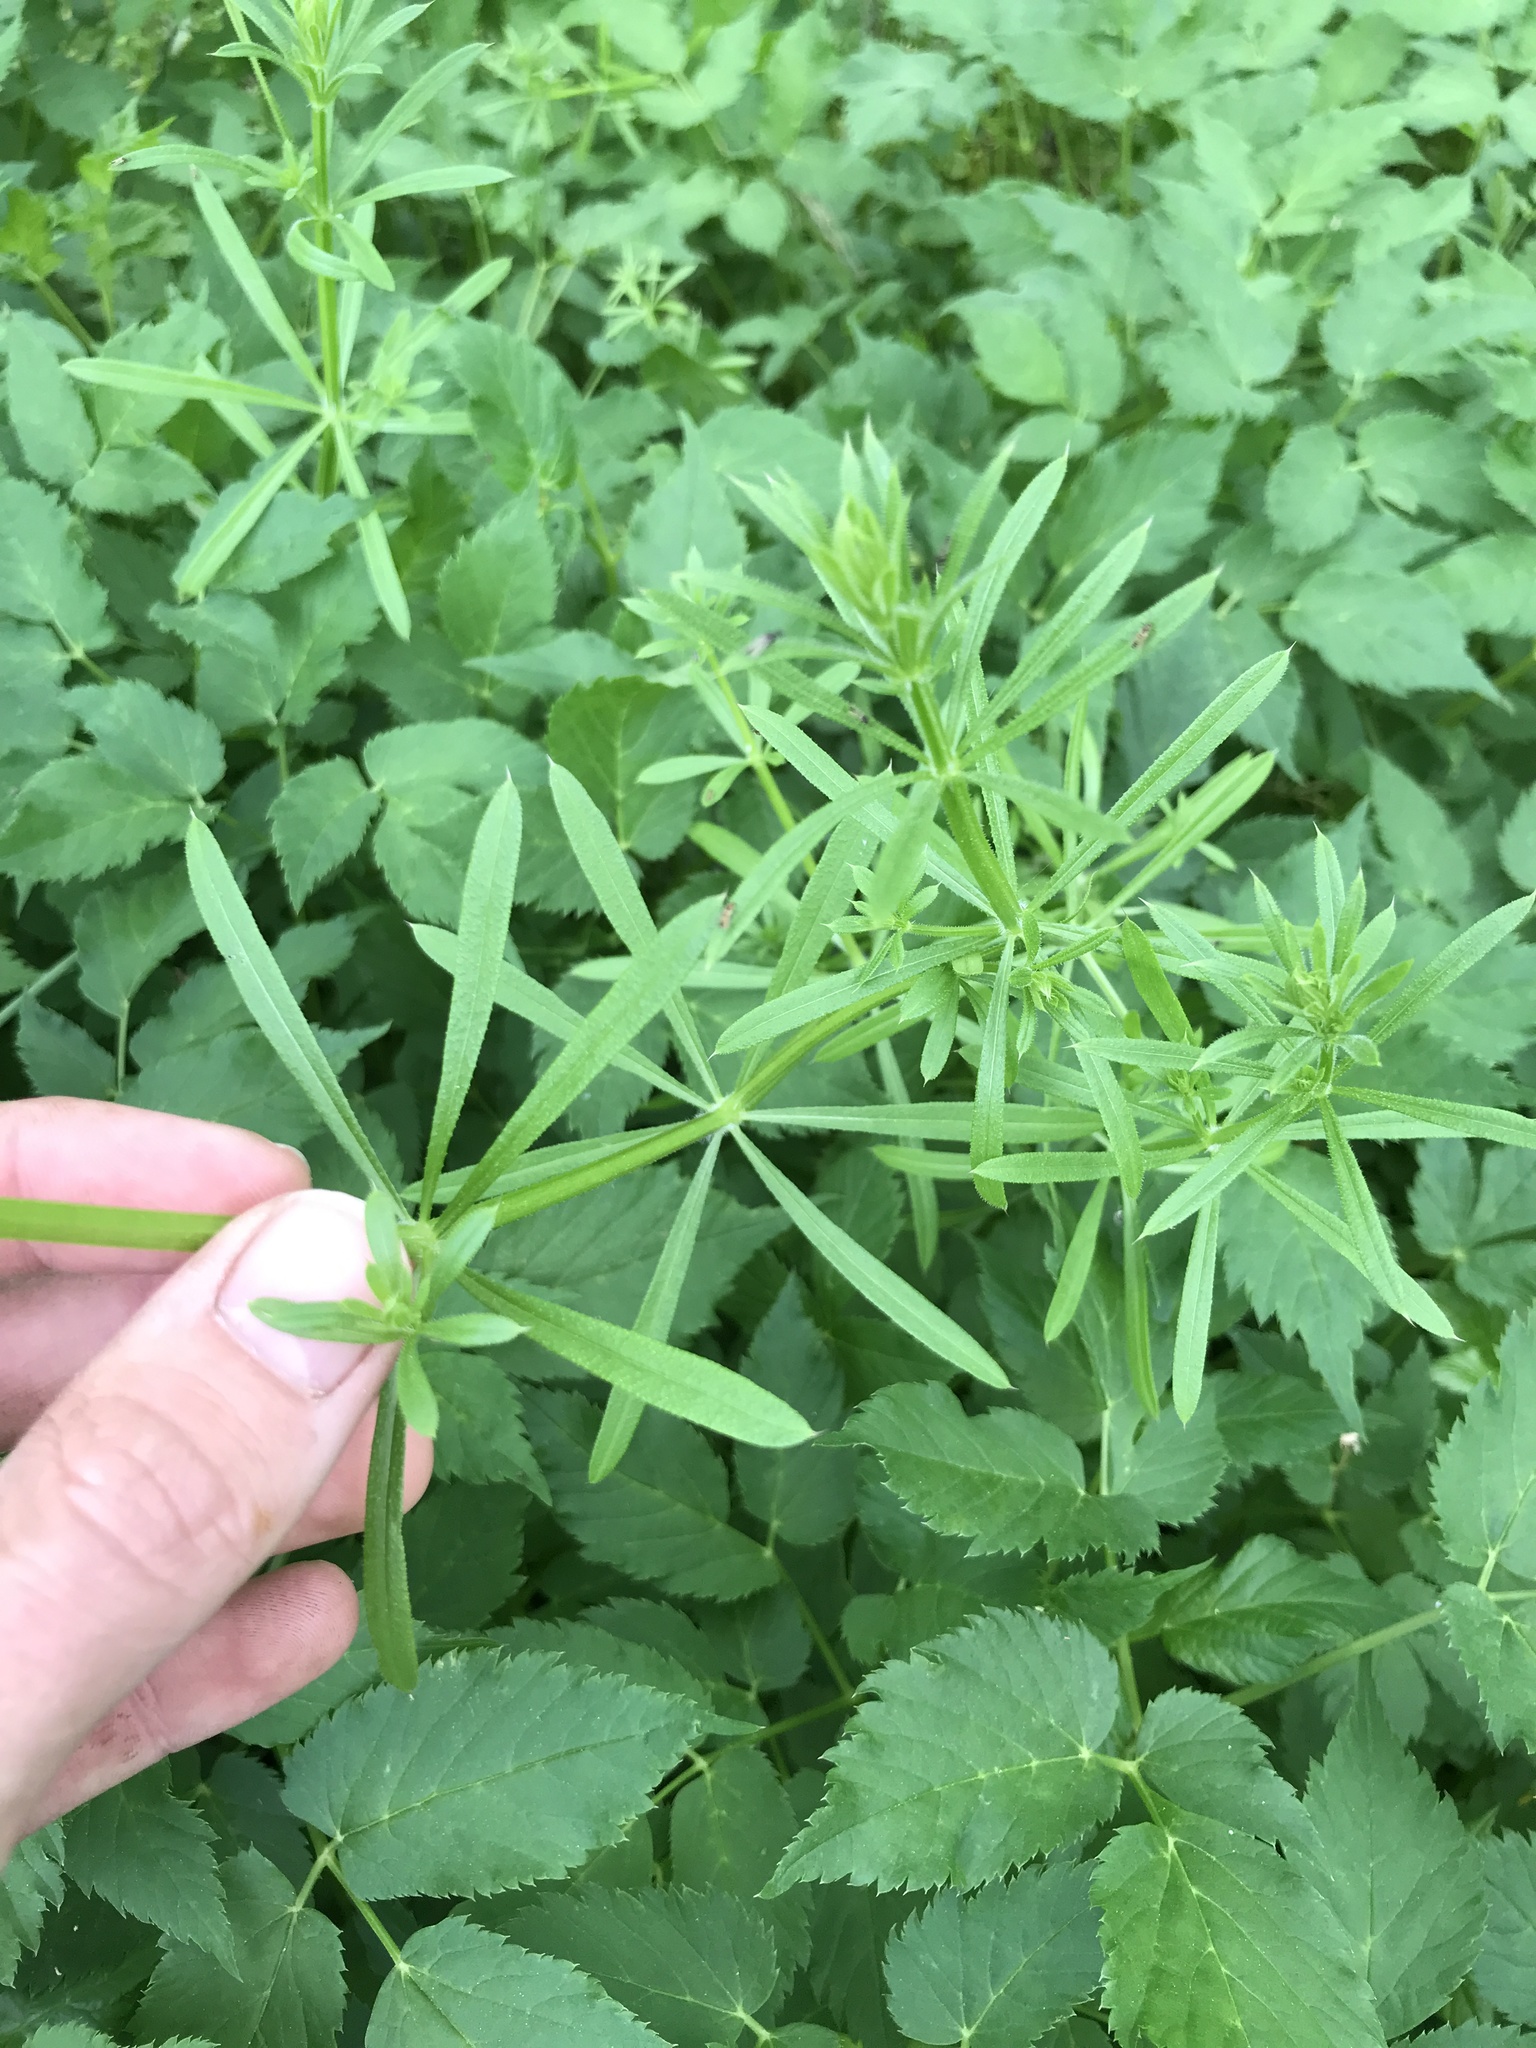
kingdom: Plantae
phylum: Tracheophyta
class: Magnoliopsida
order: Gentianales
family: Rubiaceae
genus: Galium
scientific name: Galium aparine
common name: Cleavers
